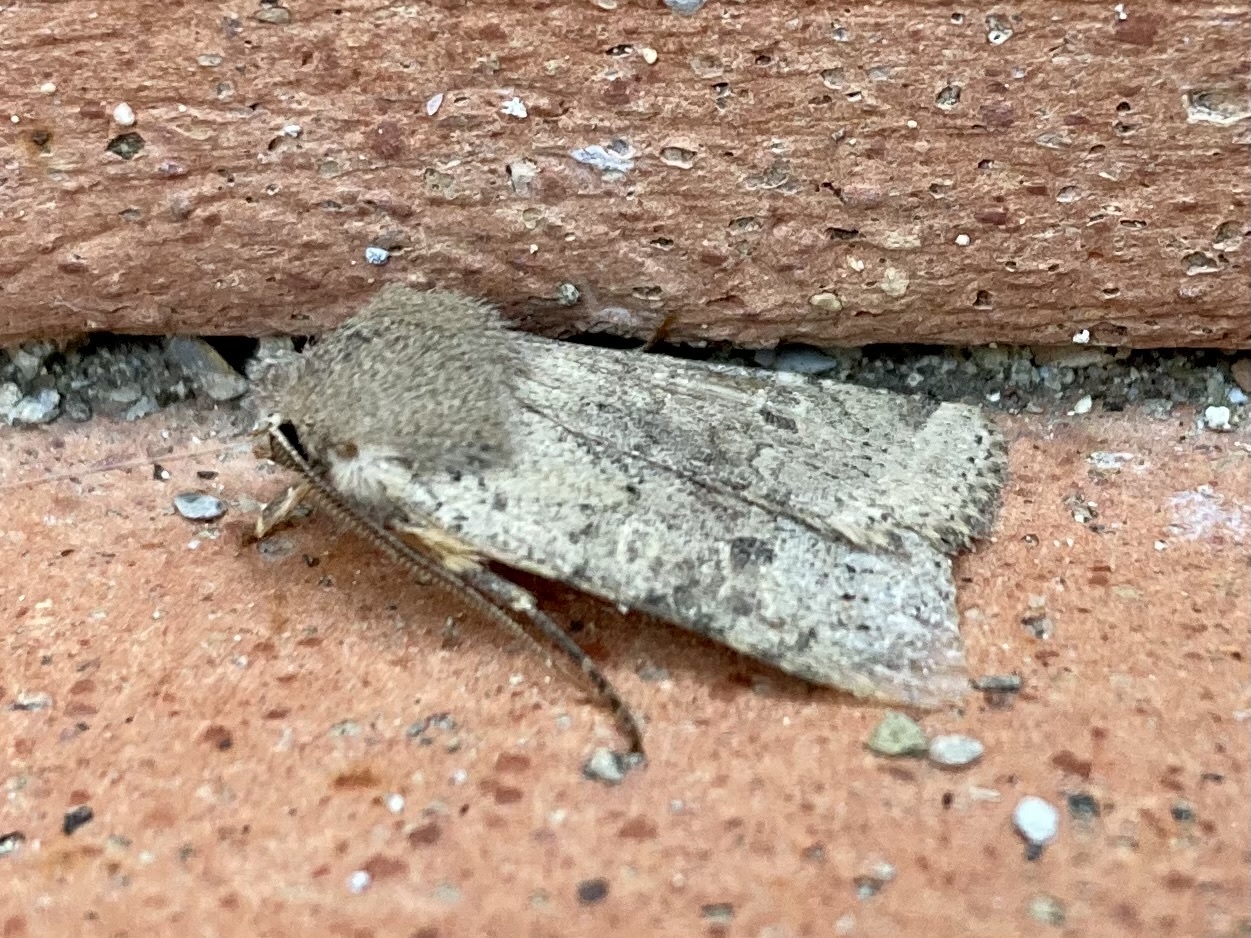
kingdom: Animalia
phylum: Arthropoda
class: Insecta
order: Lepidoptera
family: Noctuidae
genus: Agrochola
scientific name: Agrochola ruticilla
